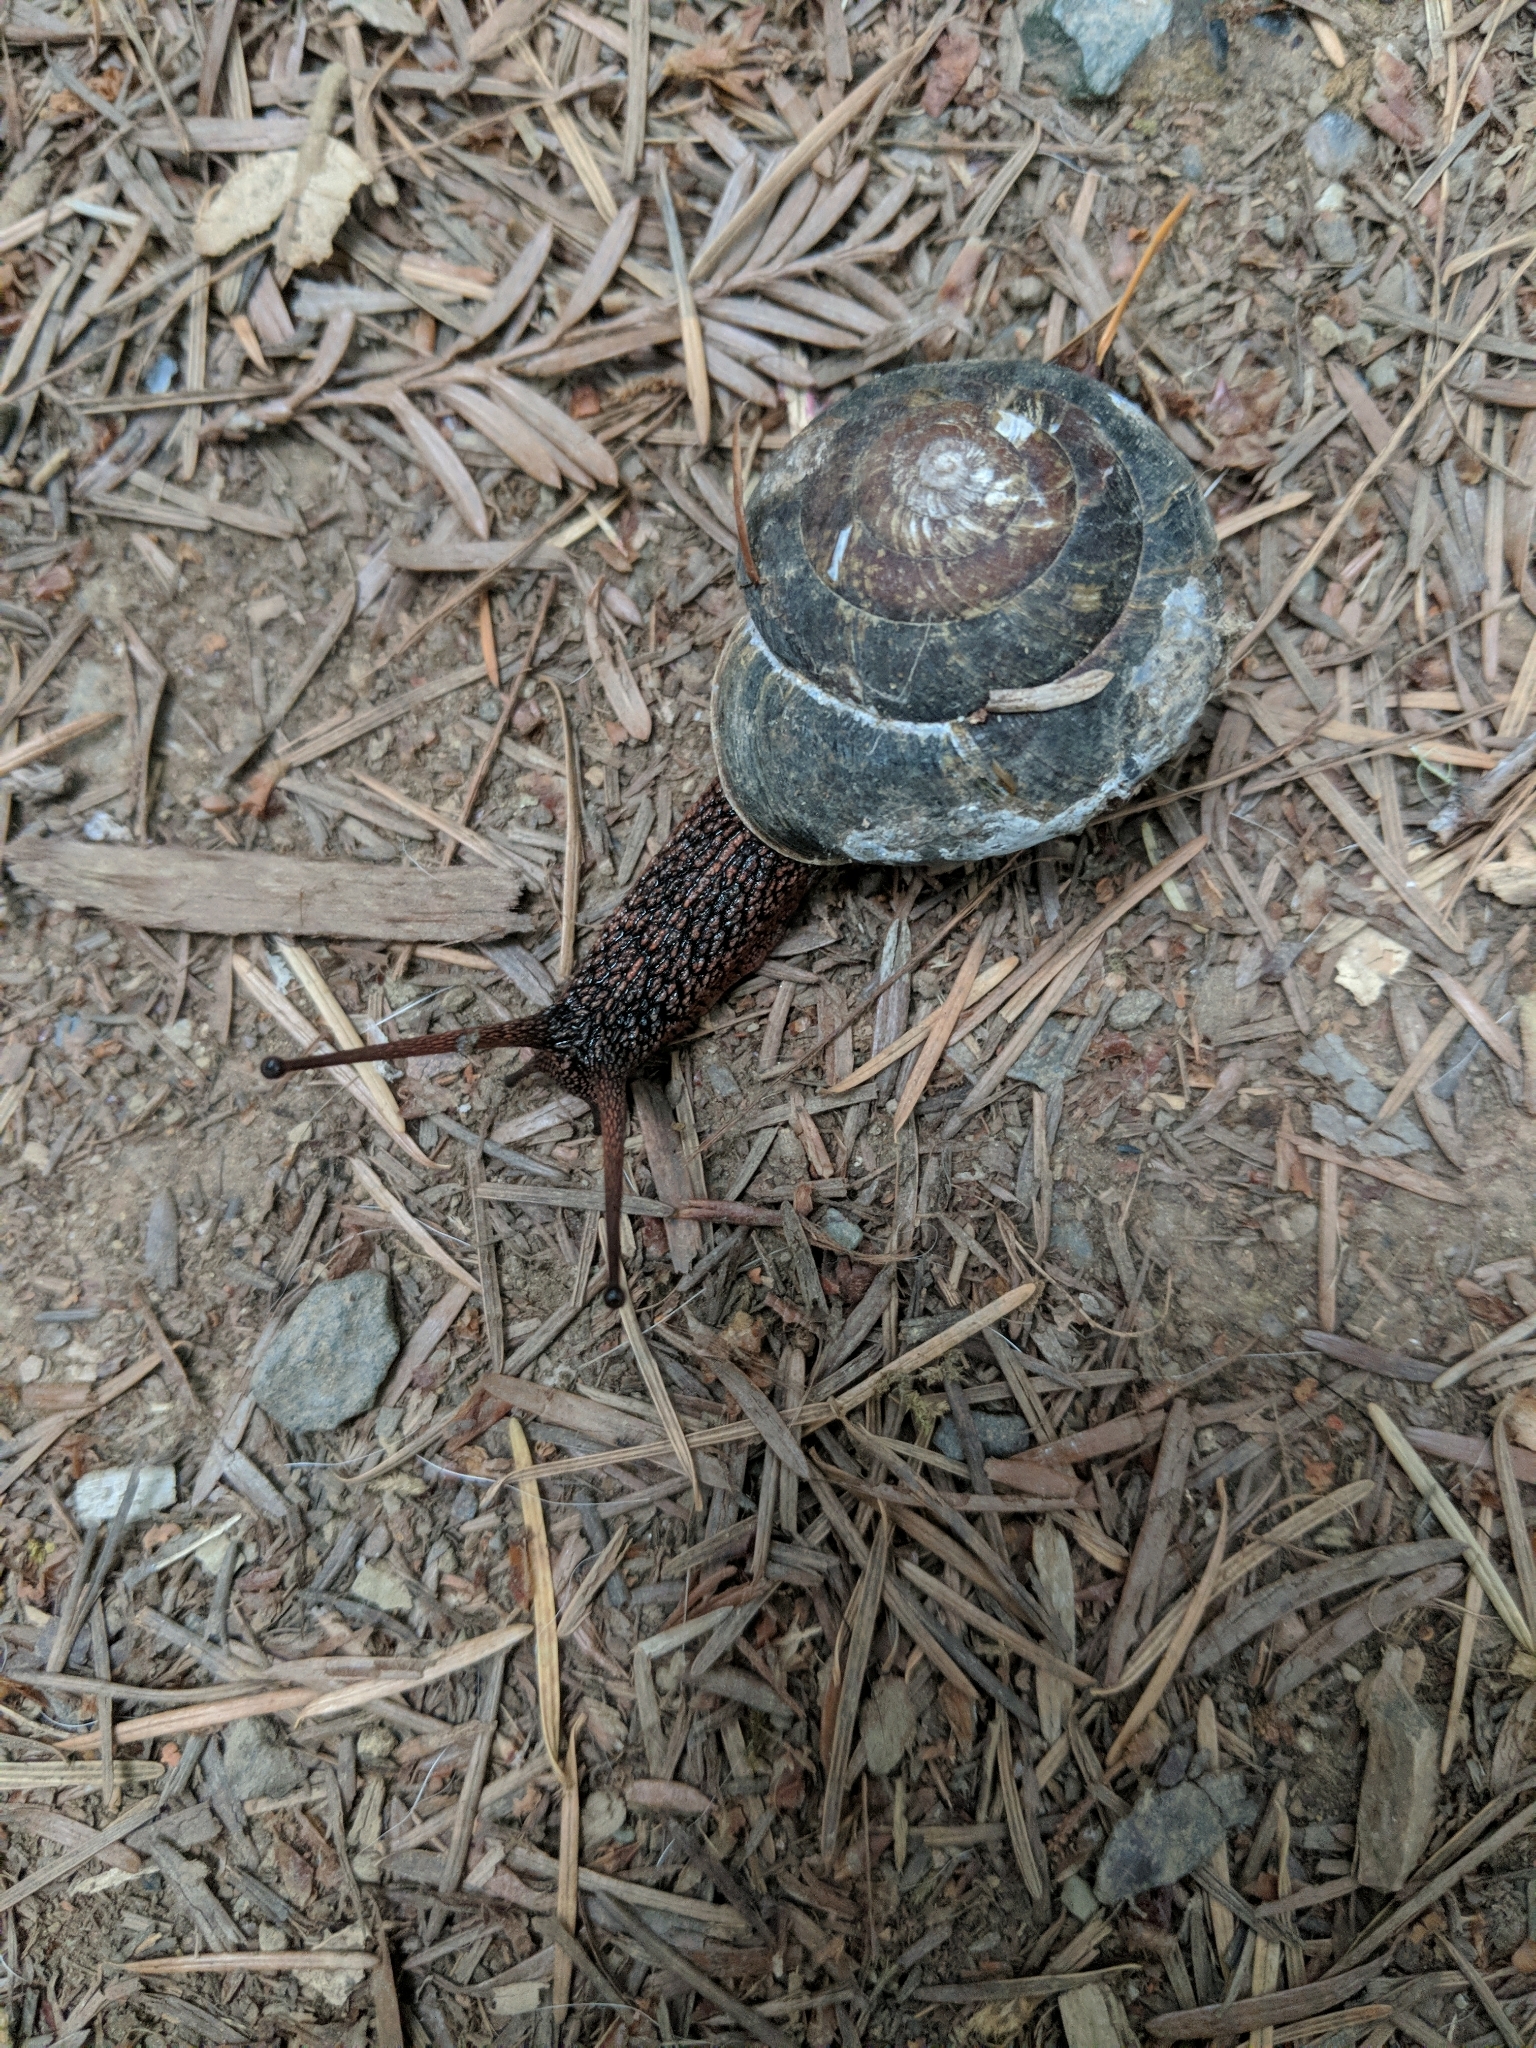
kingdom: Animalia
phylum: Mollusca
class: Gastropoda
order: Stylommatophora
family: Xanthonychidae
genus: Monadenia
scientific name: Monadenia infumata
